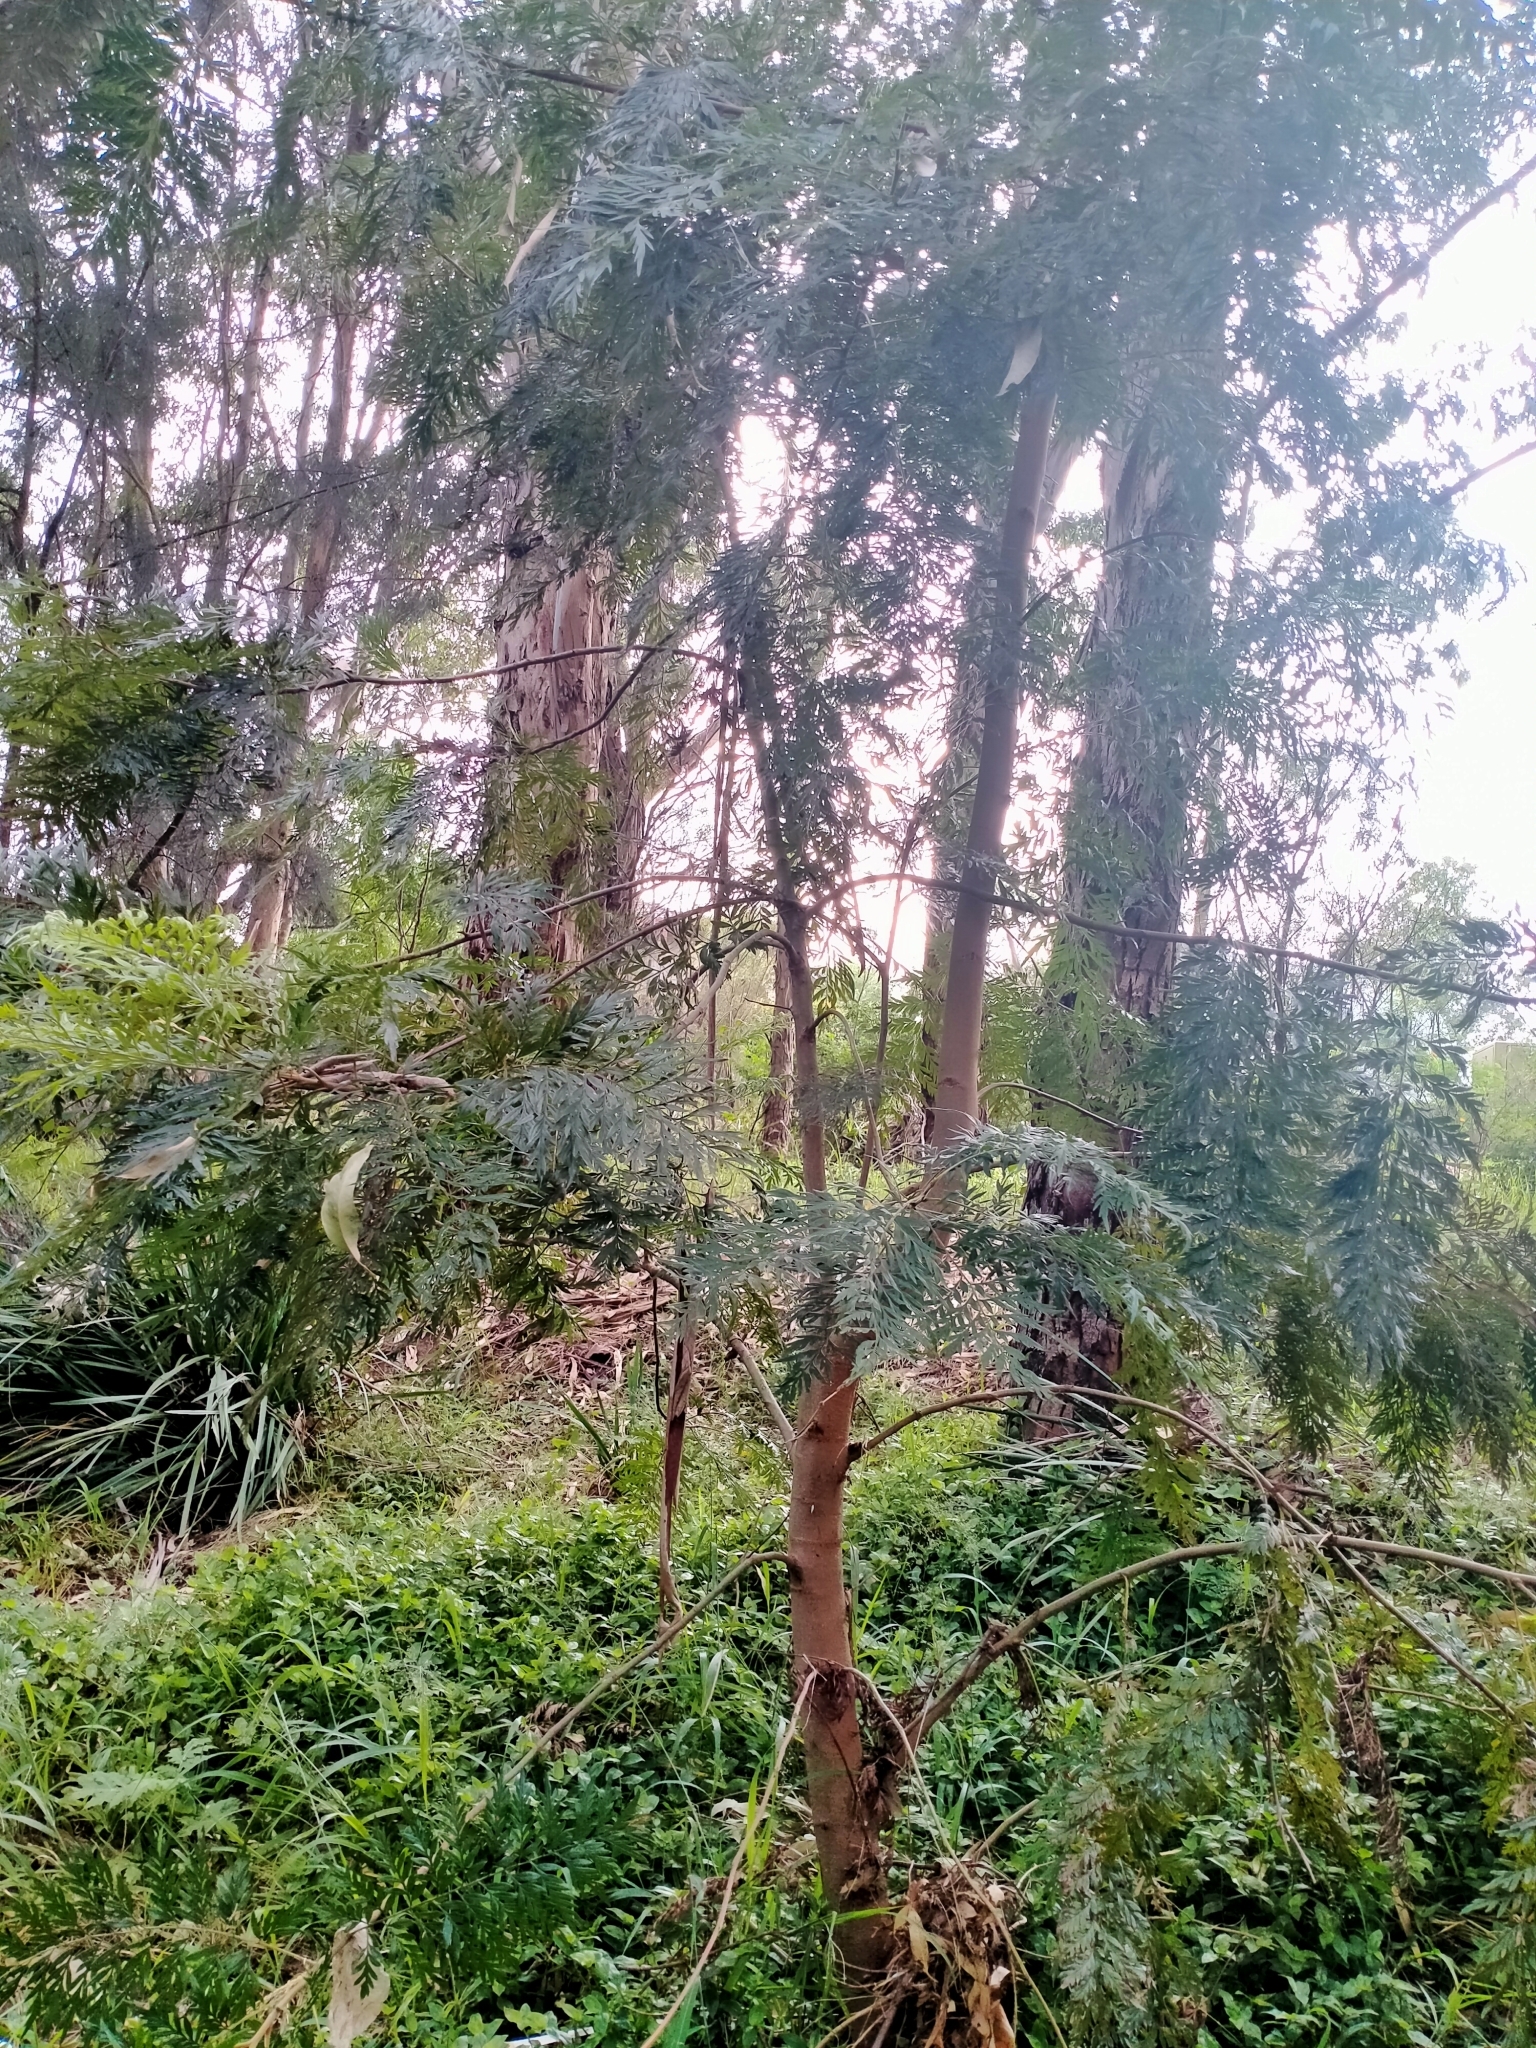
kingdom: Plantae
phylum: Tracheophyta
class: Magnoliopsida
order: Proteales
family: Proteaceae
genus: Grevillea
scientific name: Grevillea robusta
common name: Silkoak
